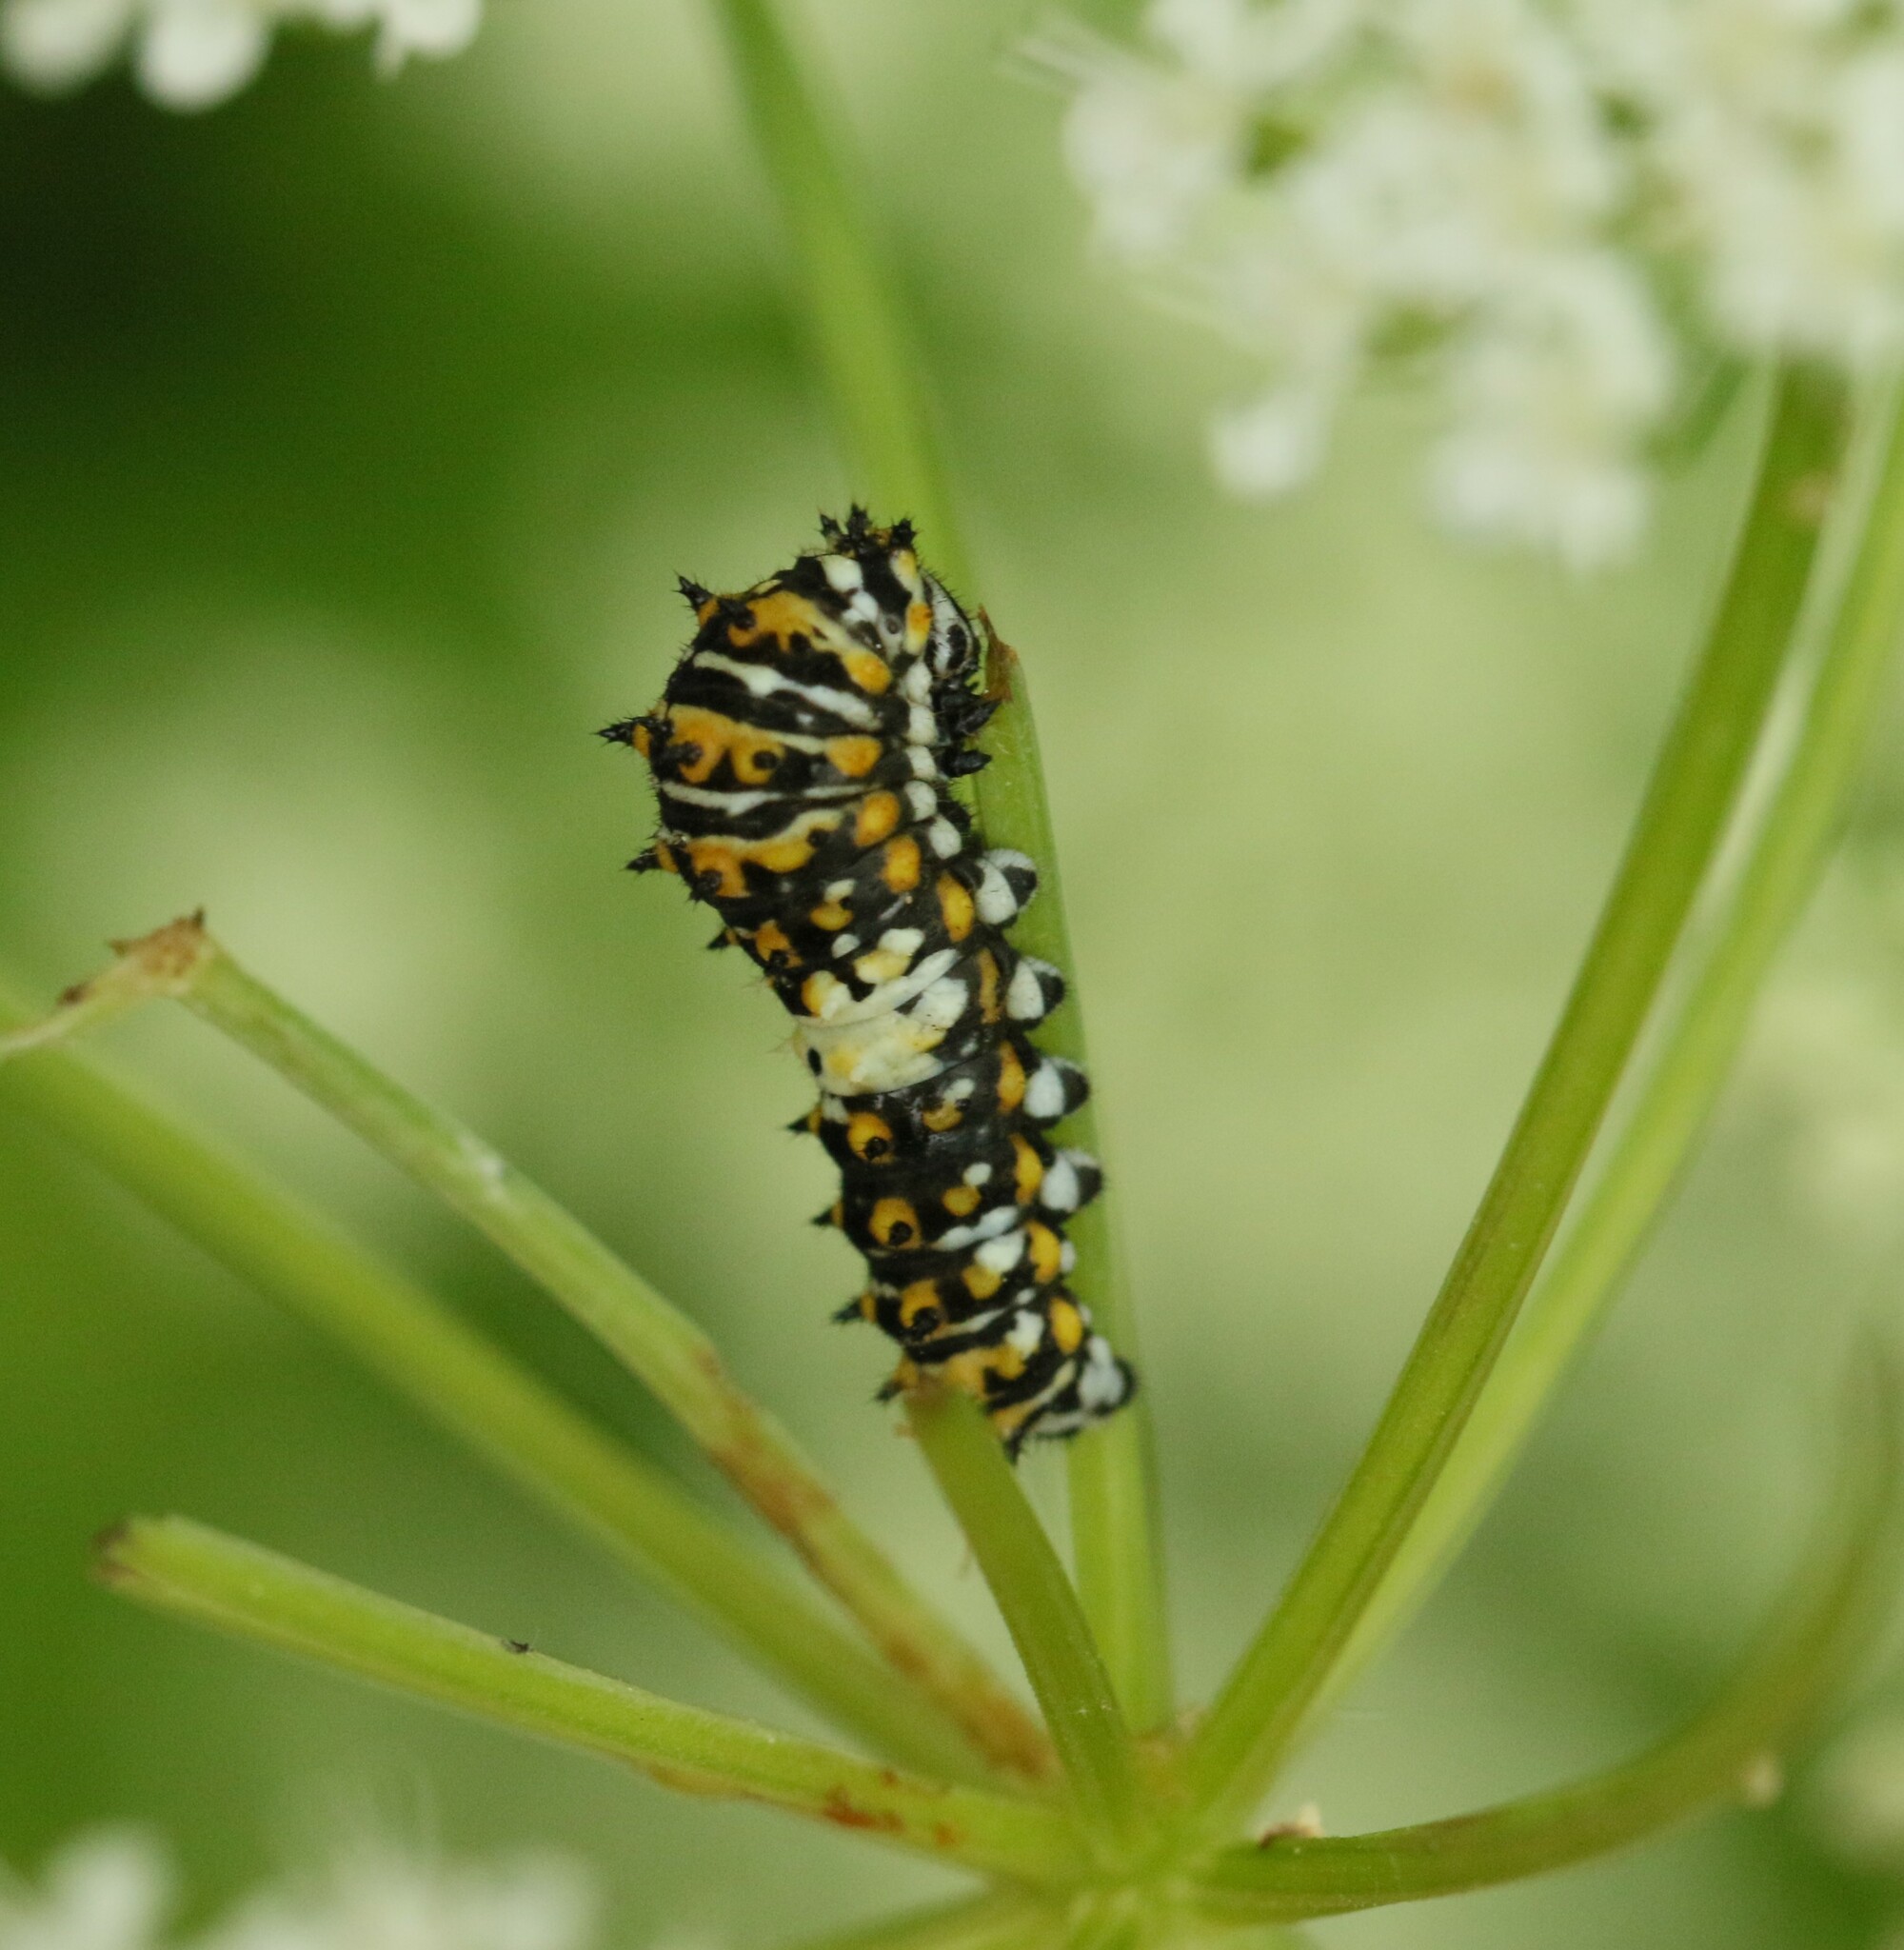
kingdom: Animalia
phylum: Arthropoda
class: Insecta
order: Lepidoptera
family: Papilionidae
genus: Papilio
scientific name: Papilio polyxenes
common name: Black swallowtail
